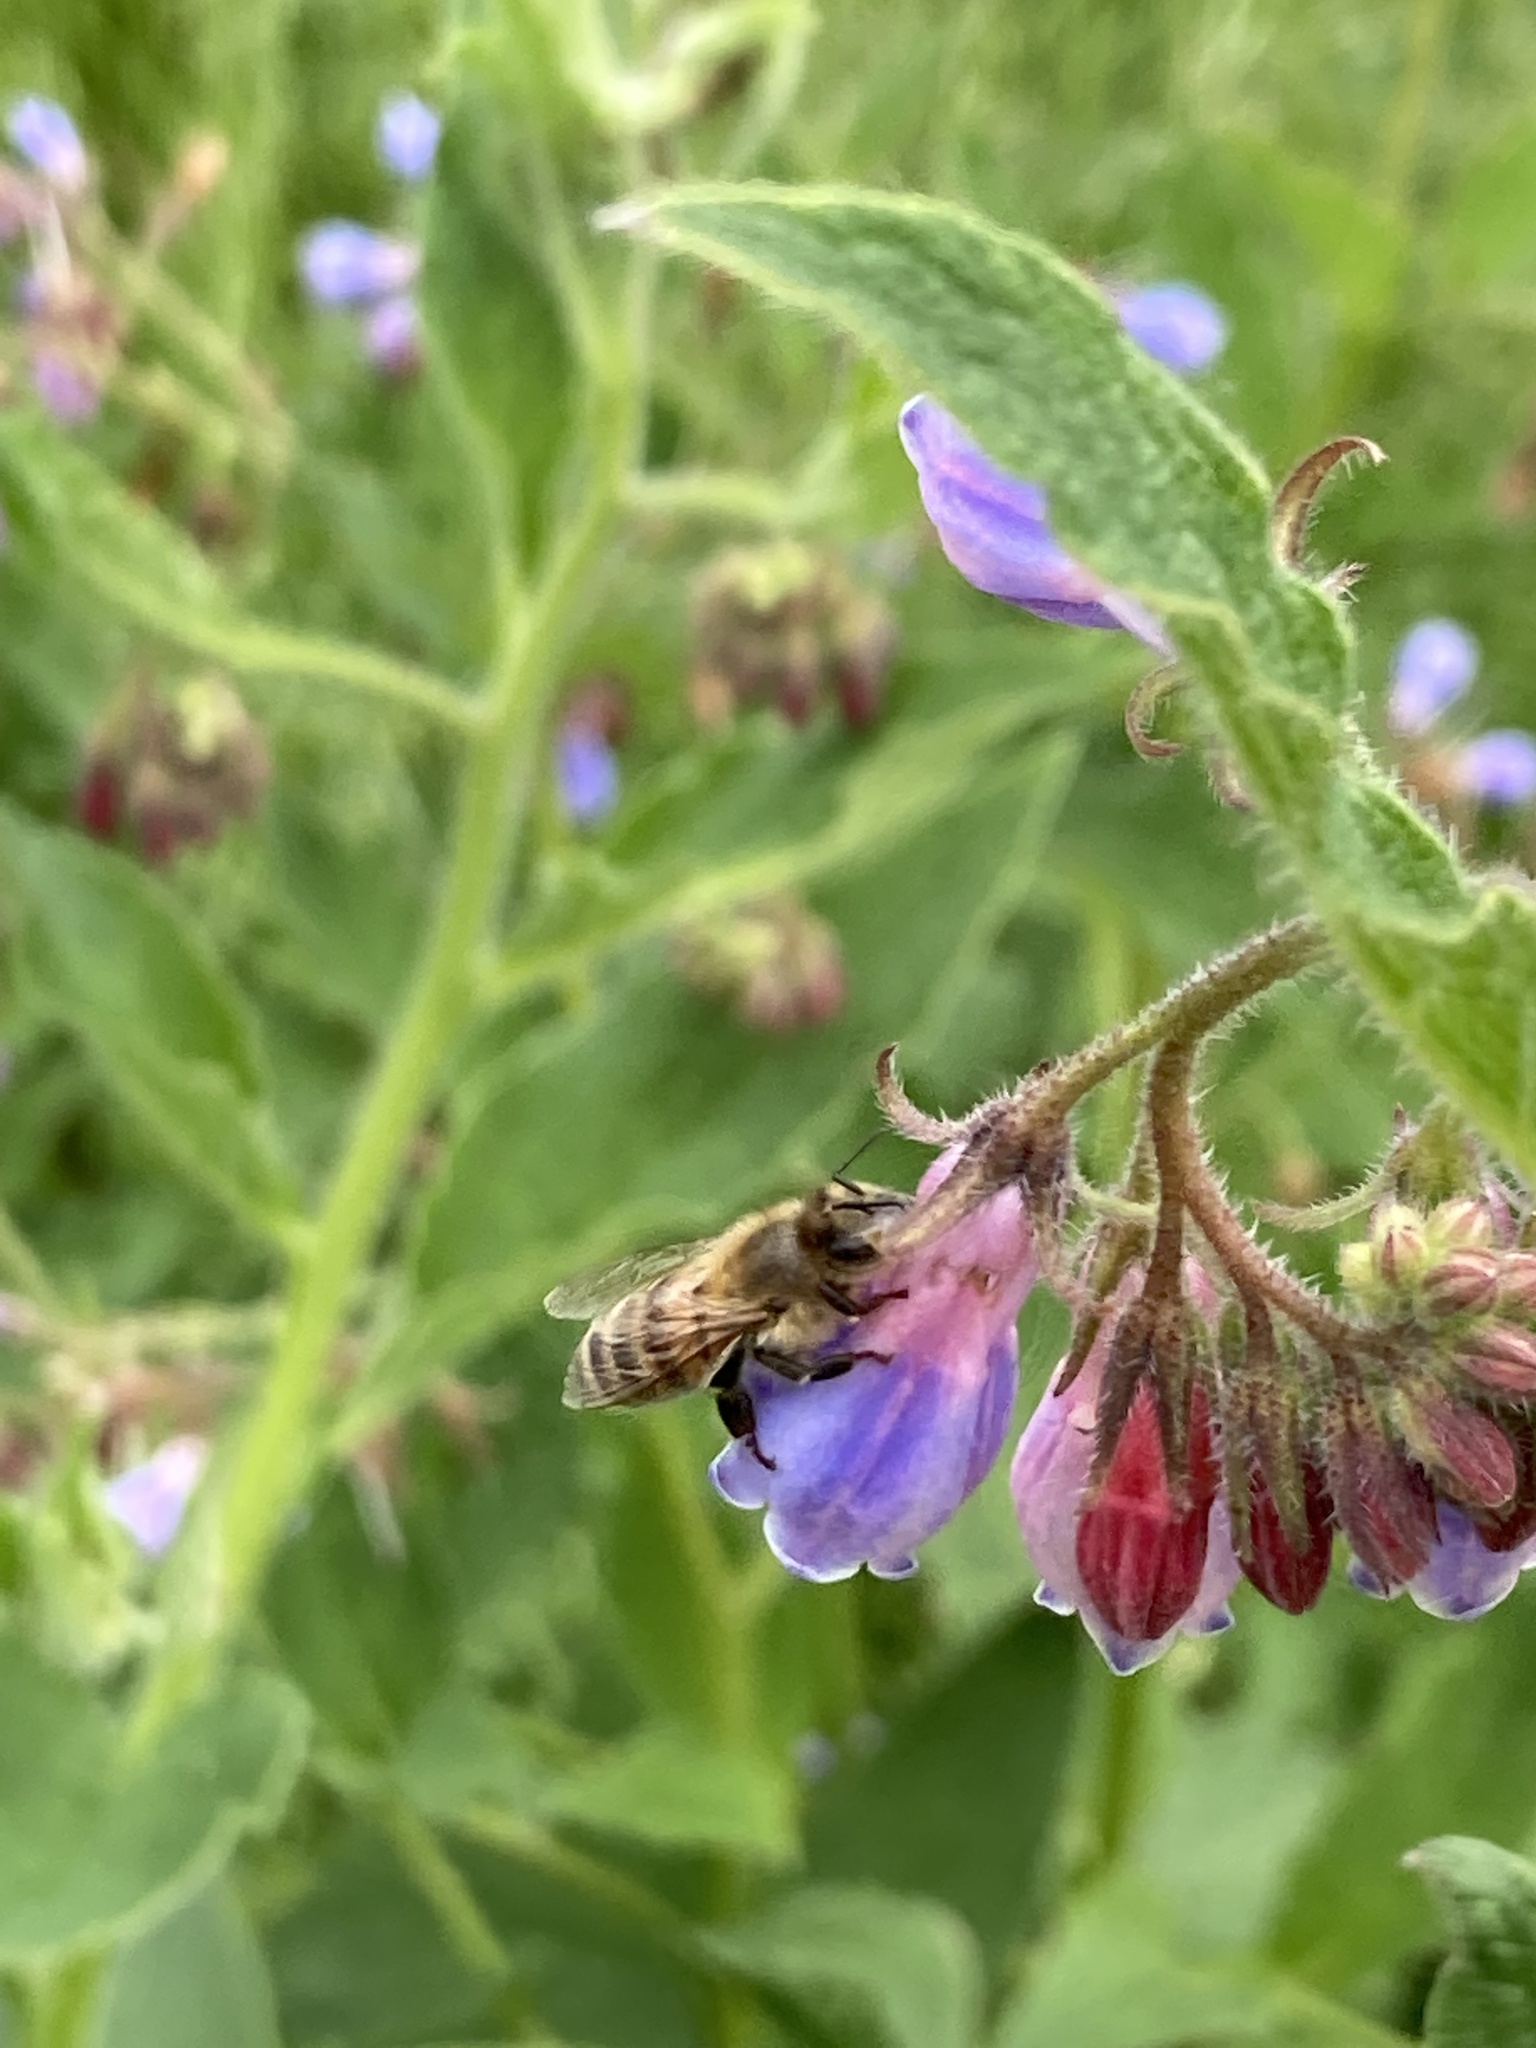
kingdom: Animalia
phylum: Arthropoda
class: Insecta
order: Hymenoptera
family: Apidae
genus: Apis
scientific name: Apis mellifera
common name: Honey bee
